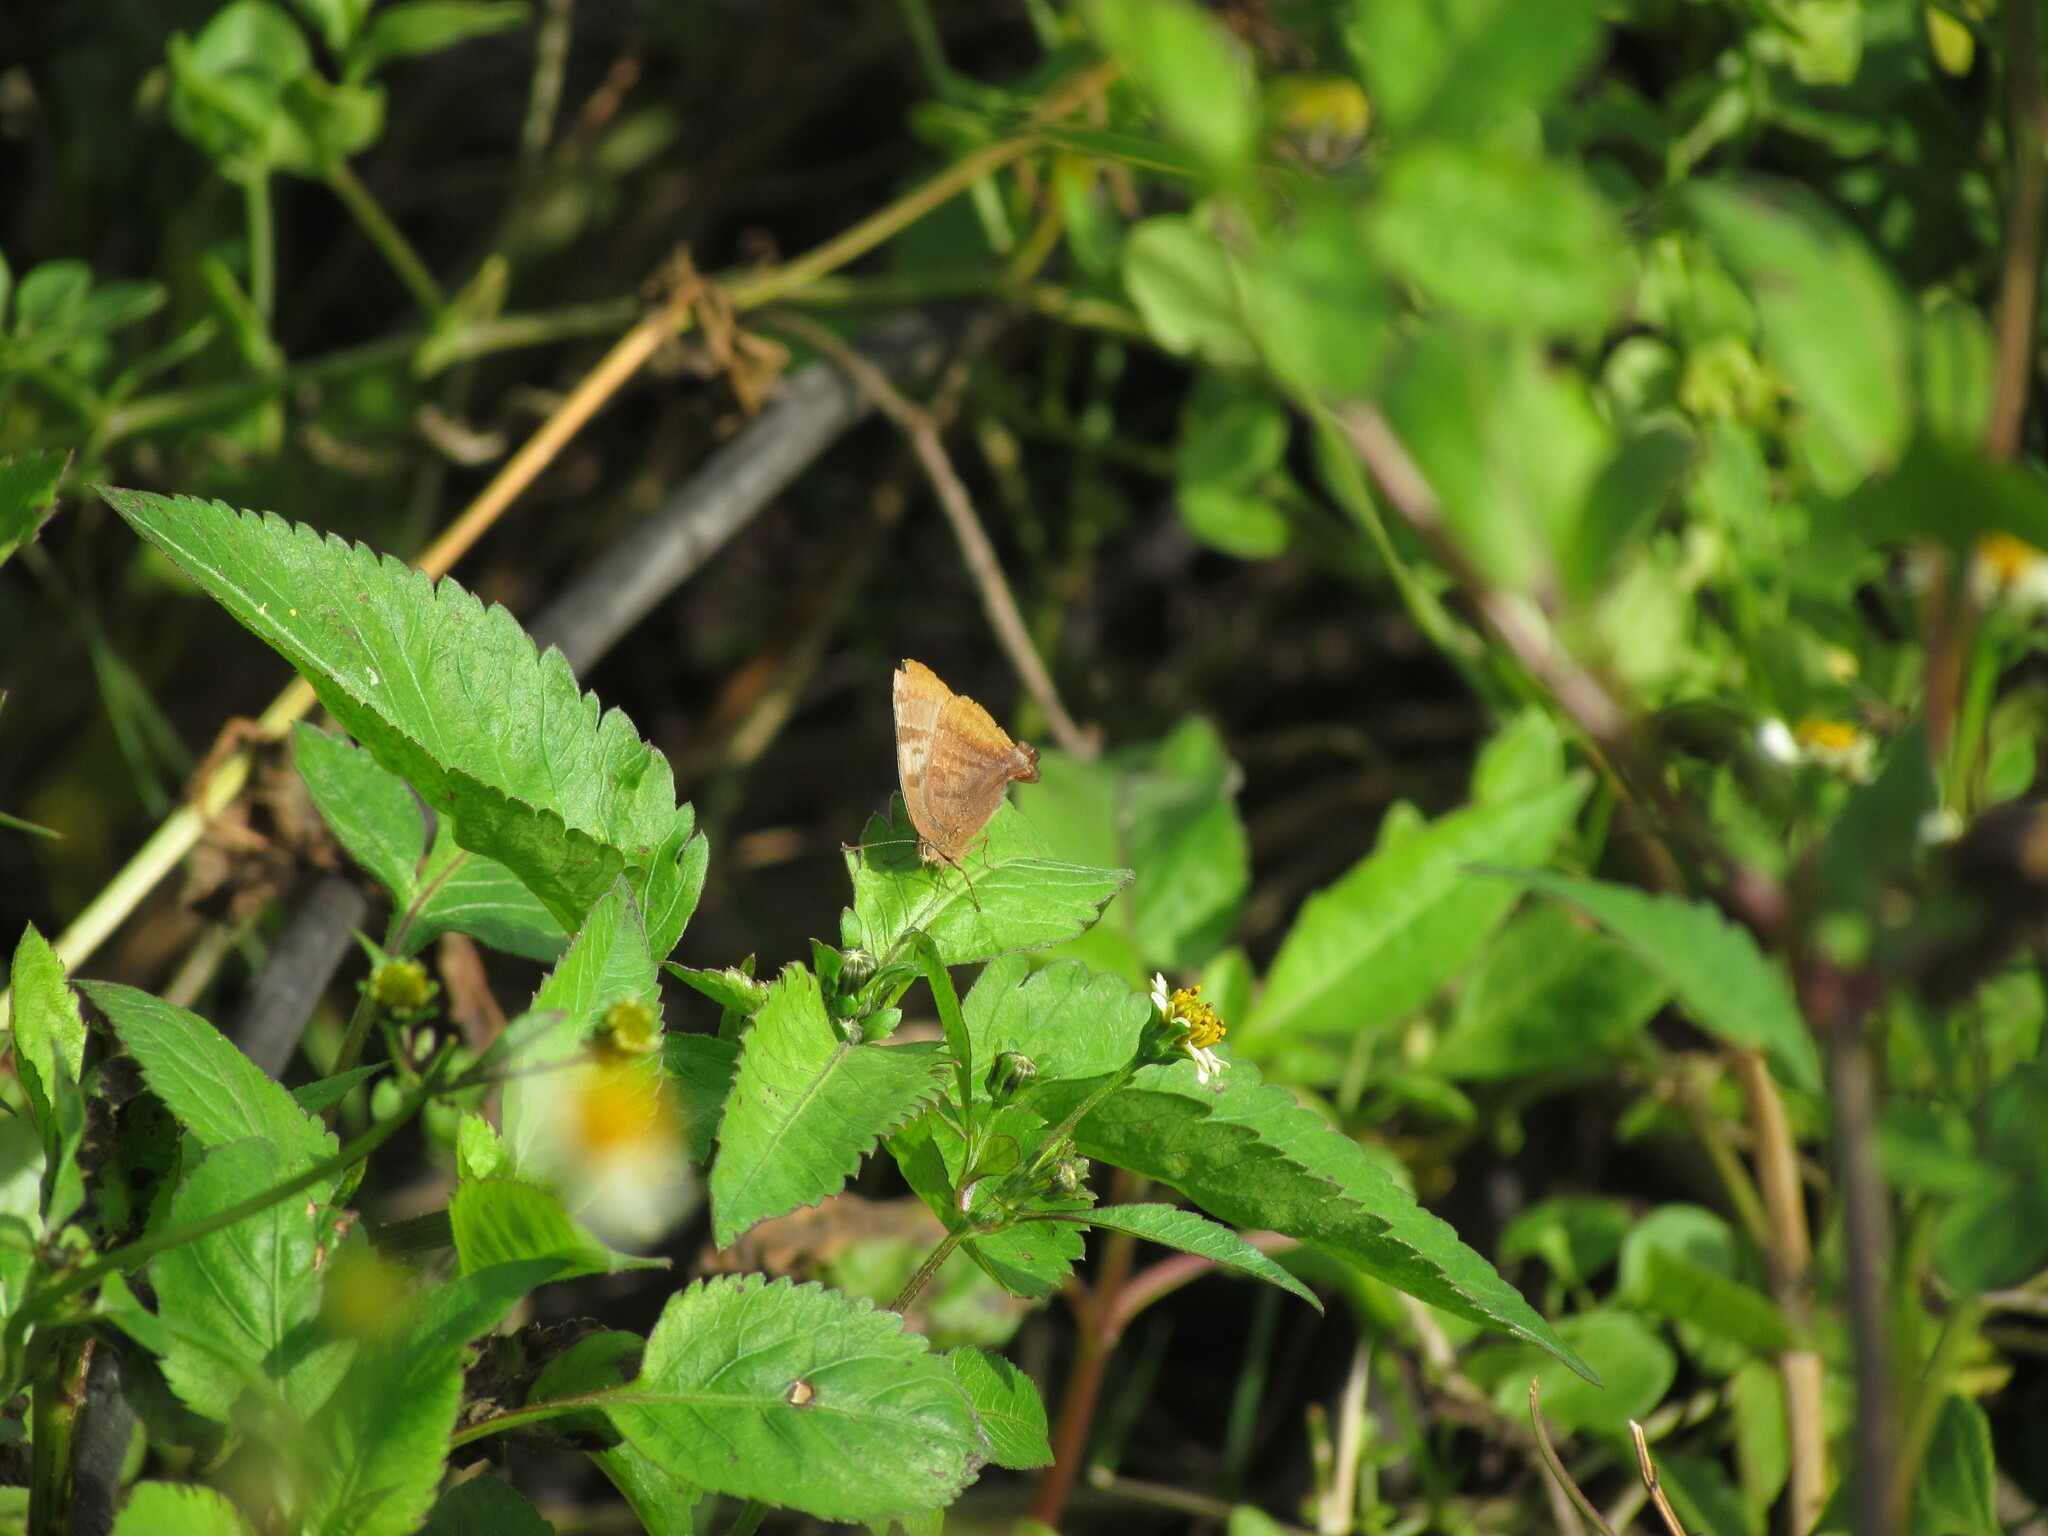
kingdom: Animalia
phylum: Arthropoda
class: Insecta
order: Lepidoptera
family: Lycaenidae
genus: Thecla
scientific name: Thecla marius
